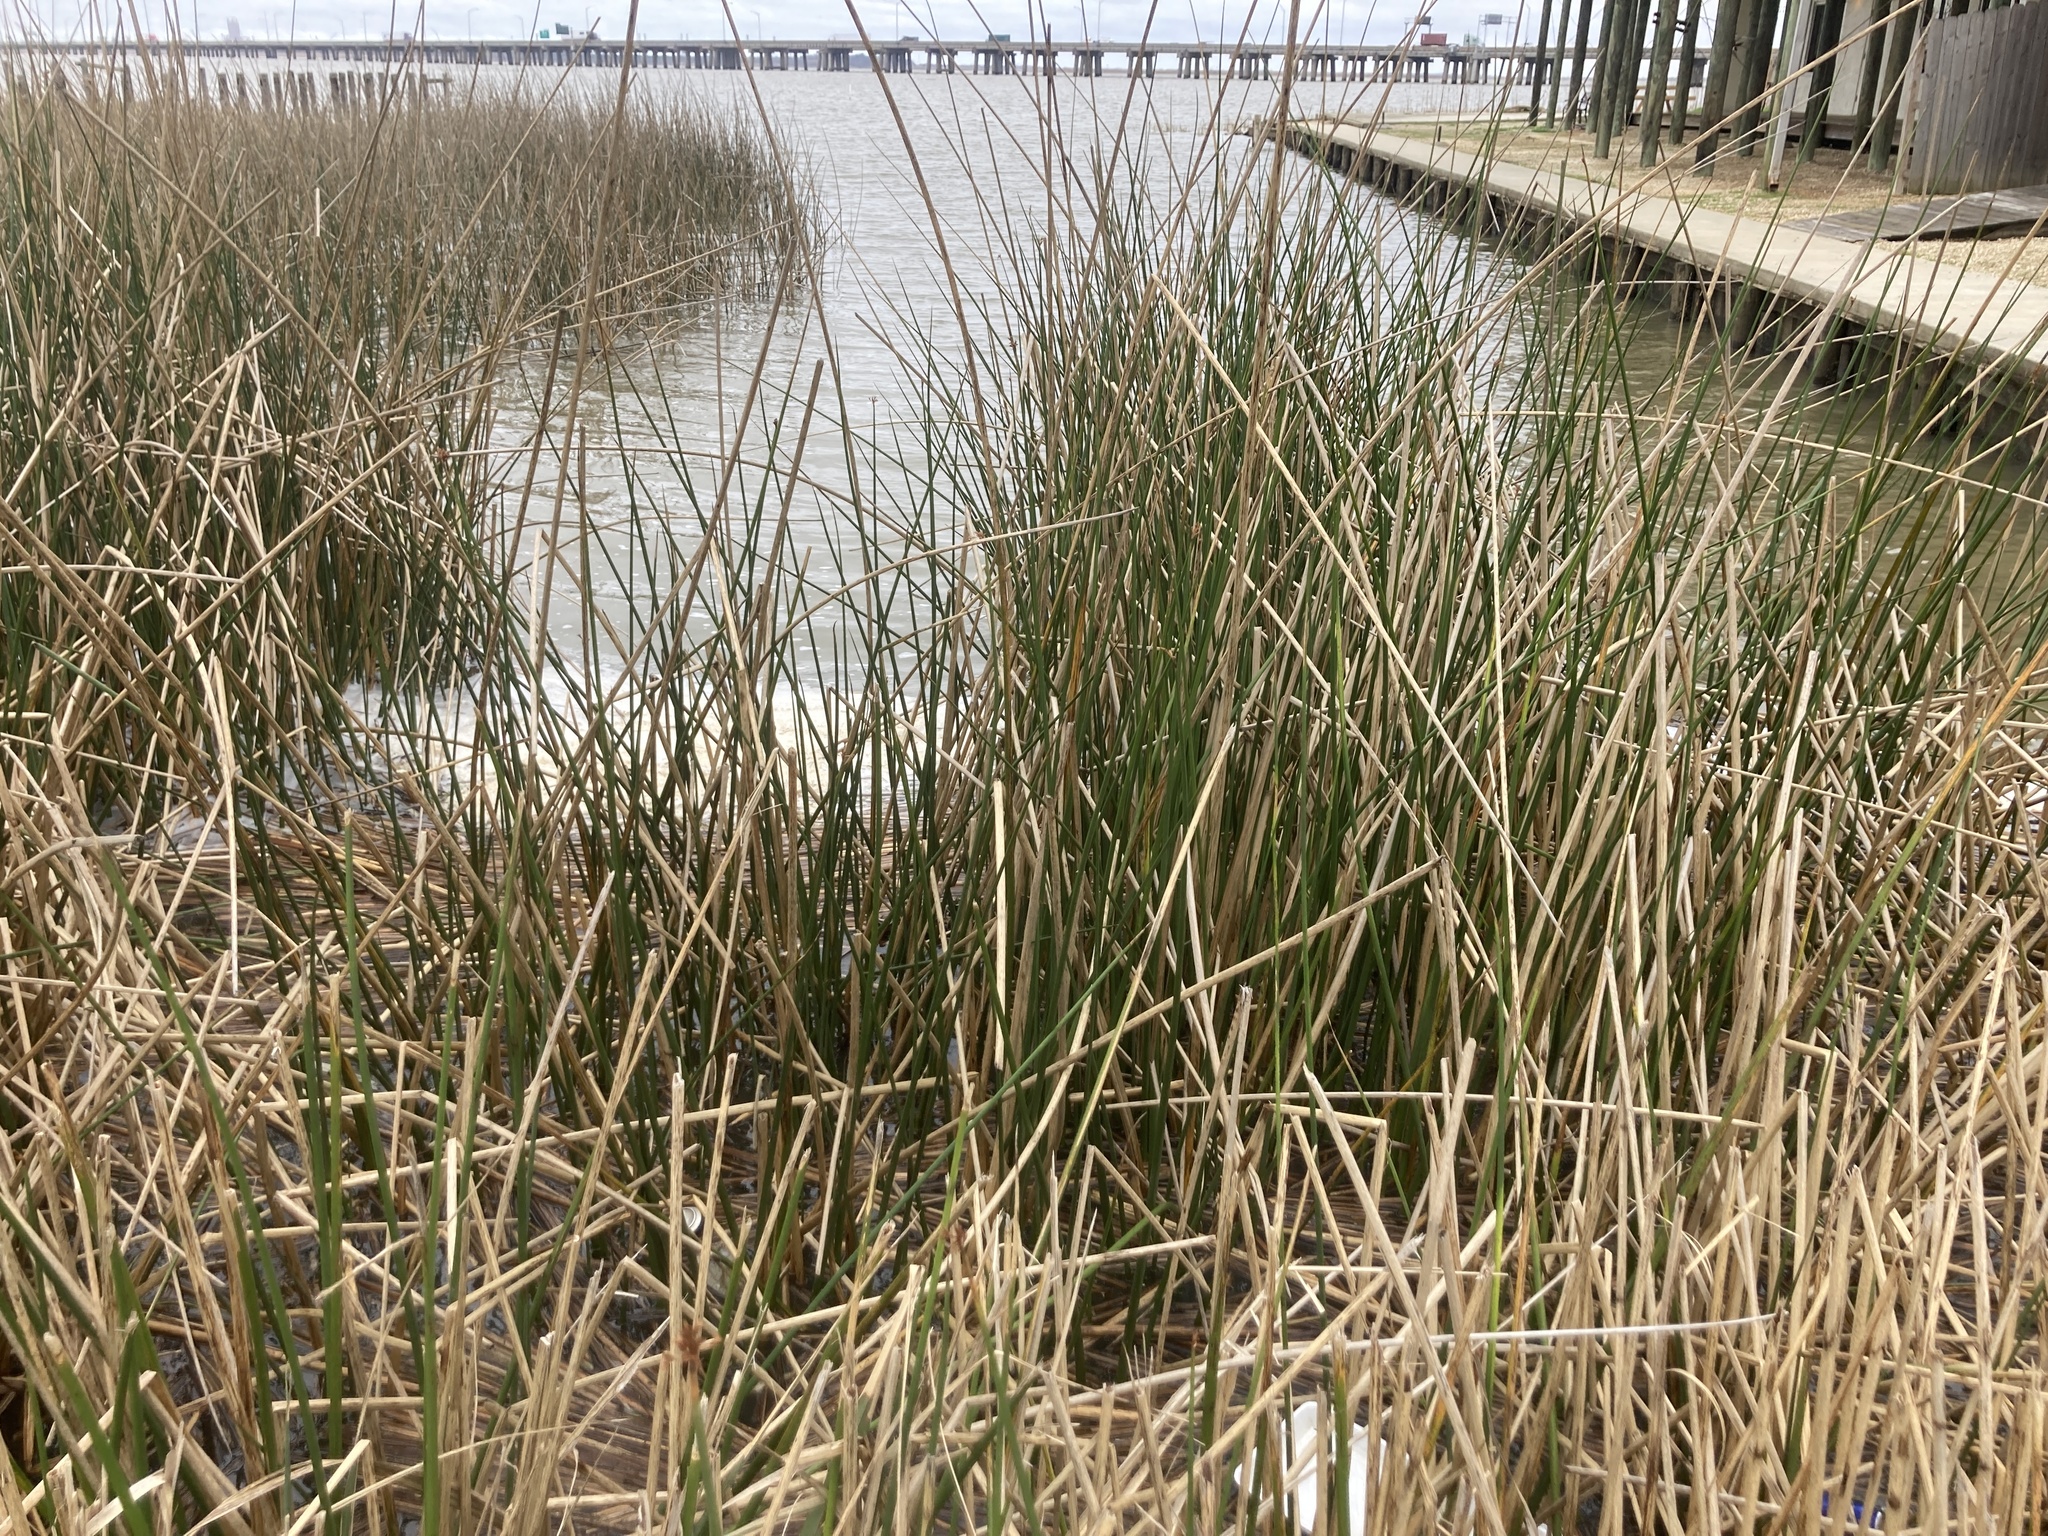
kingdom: Plantae
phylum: Tracheophyta
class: Liliopsida
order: Poales
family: Cyperaceae
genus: Schoenoplectus
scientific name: Schoenoplectus californicus
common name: California bulrush
